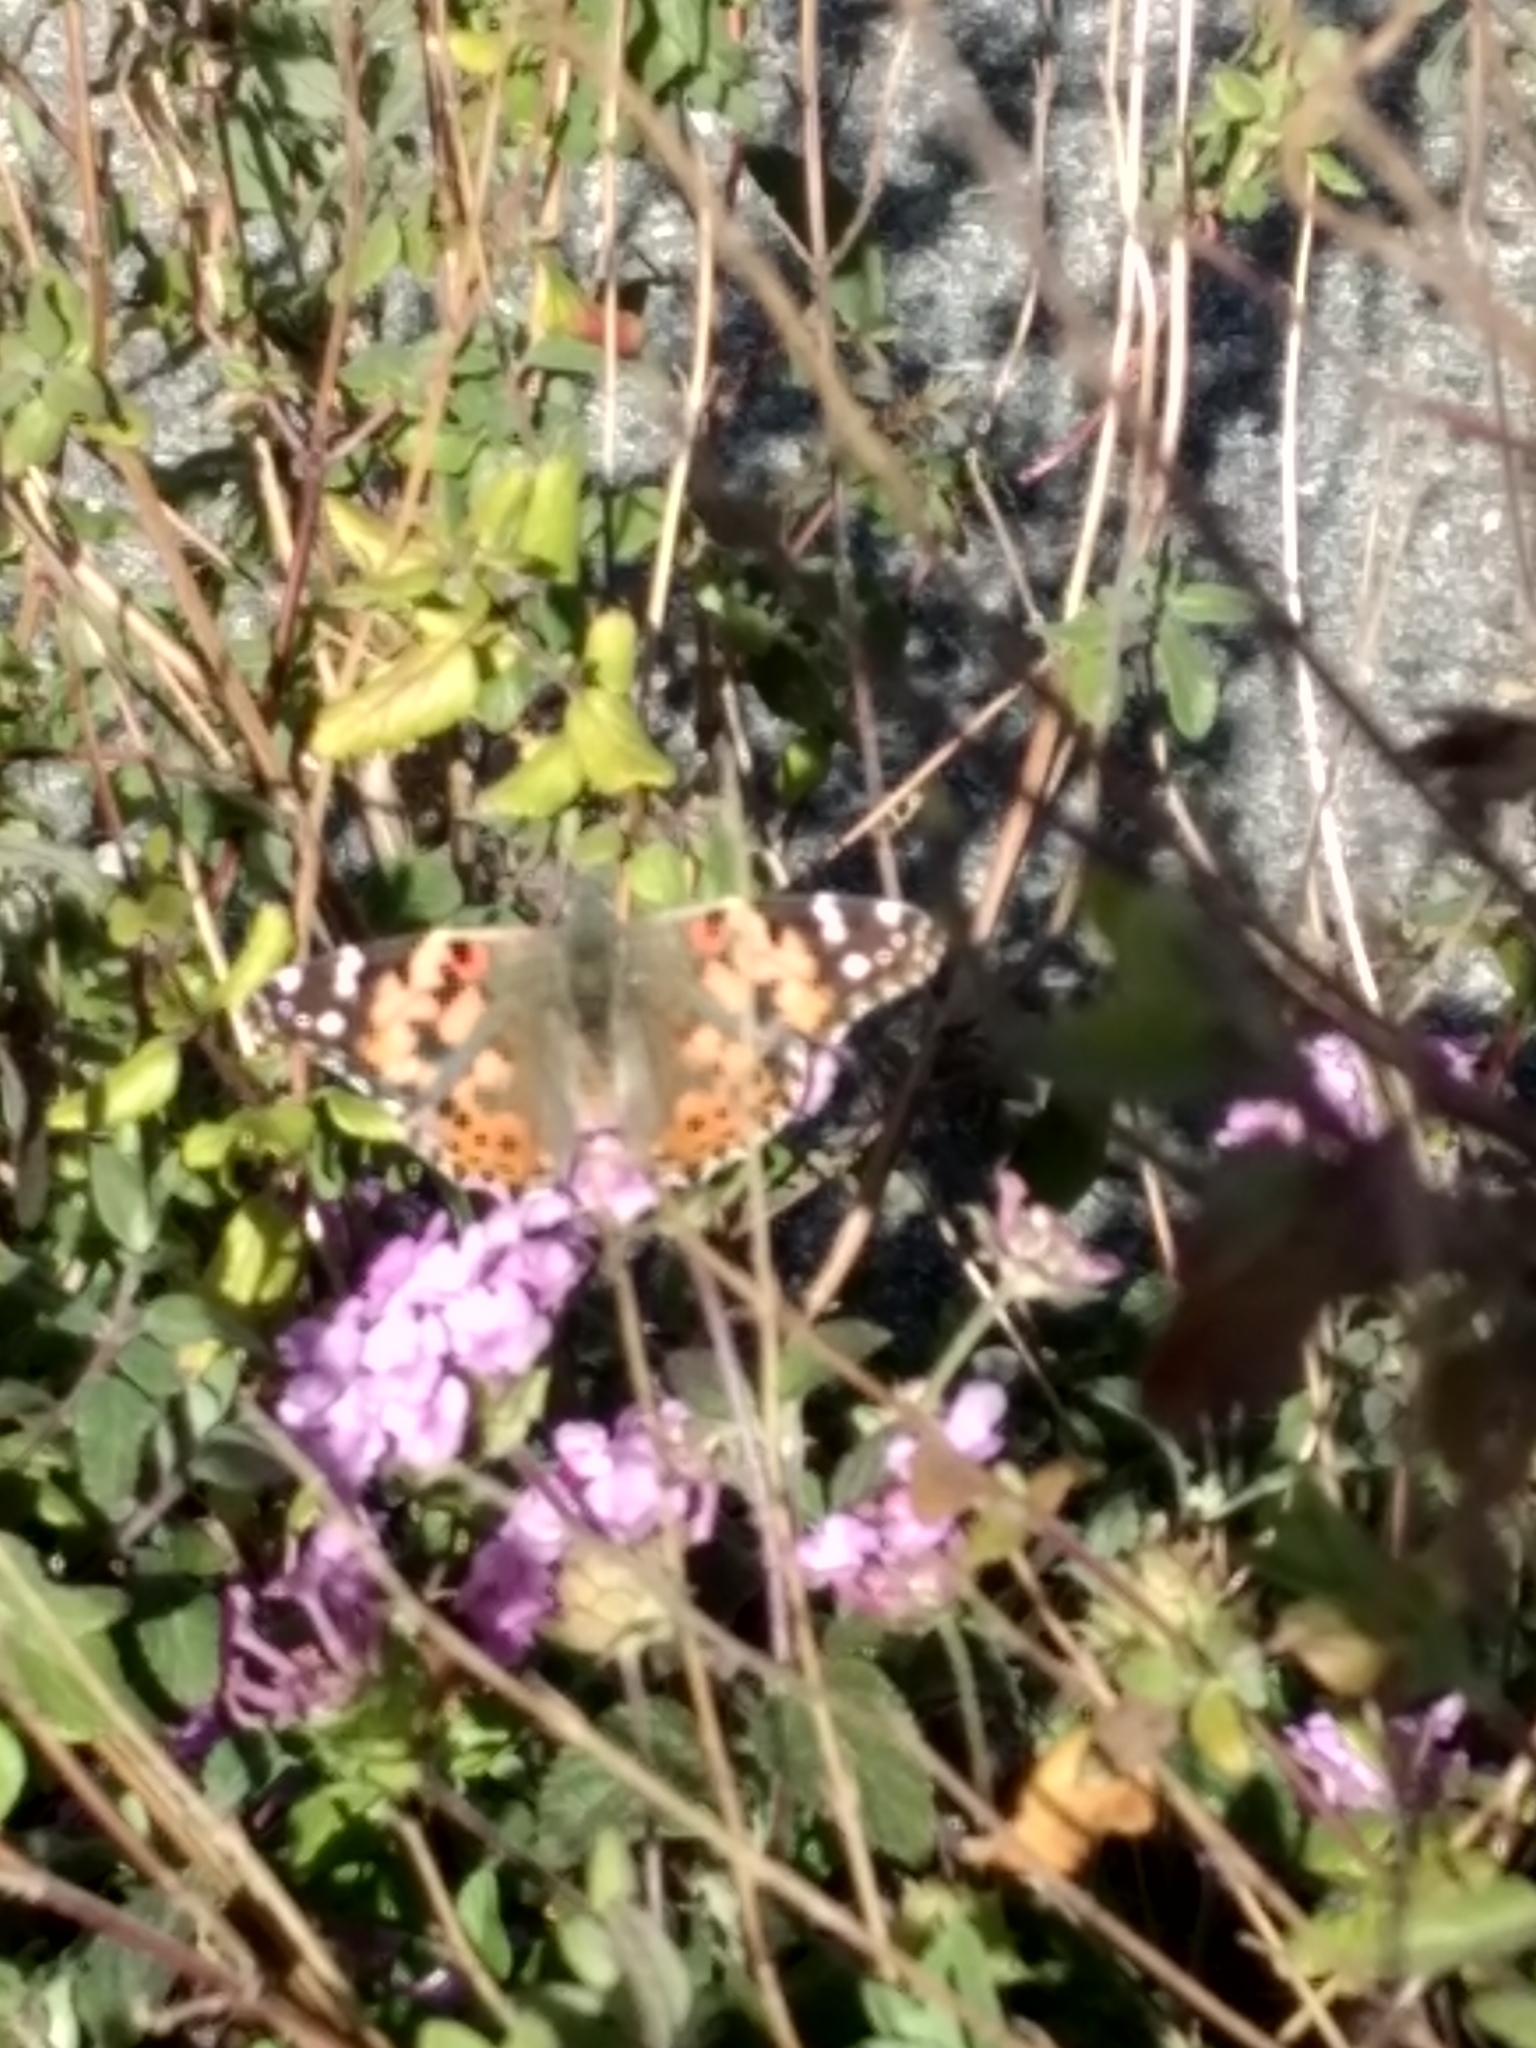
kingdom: Animalia
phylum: Arthropoda
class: Insecta
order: Lepidoptera
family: Nymphalidae
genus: Vanessa
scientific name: Vanessa cardui
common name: Painted lady
